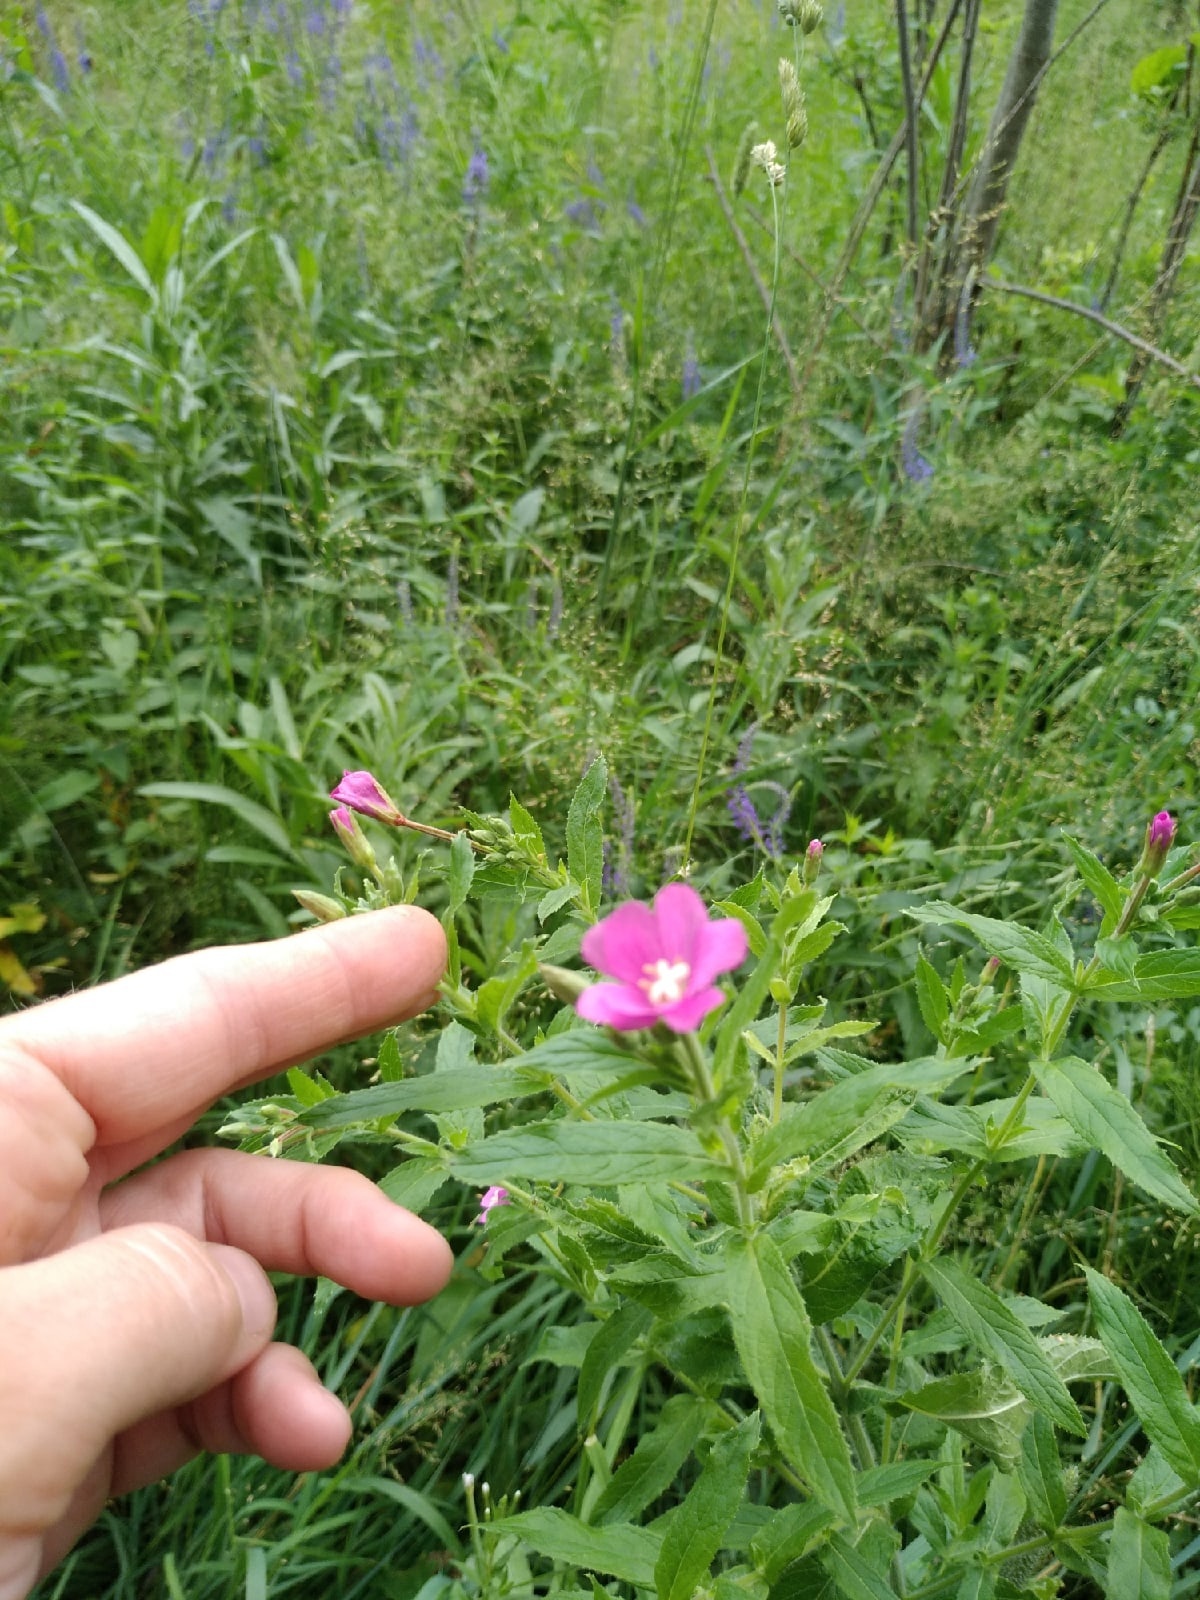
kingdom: Plantae
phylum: Tracheophyta
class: Magnoliopsida
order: Myrtales
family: Onagraceae
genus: Epilobium
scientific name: Epilobium hirsutum
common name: Great willowherb
